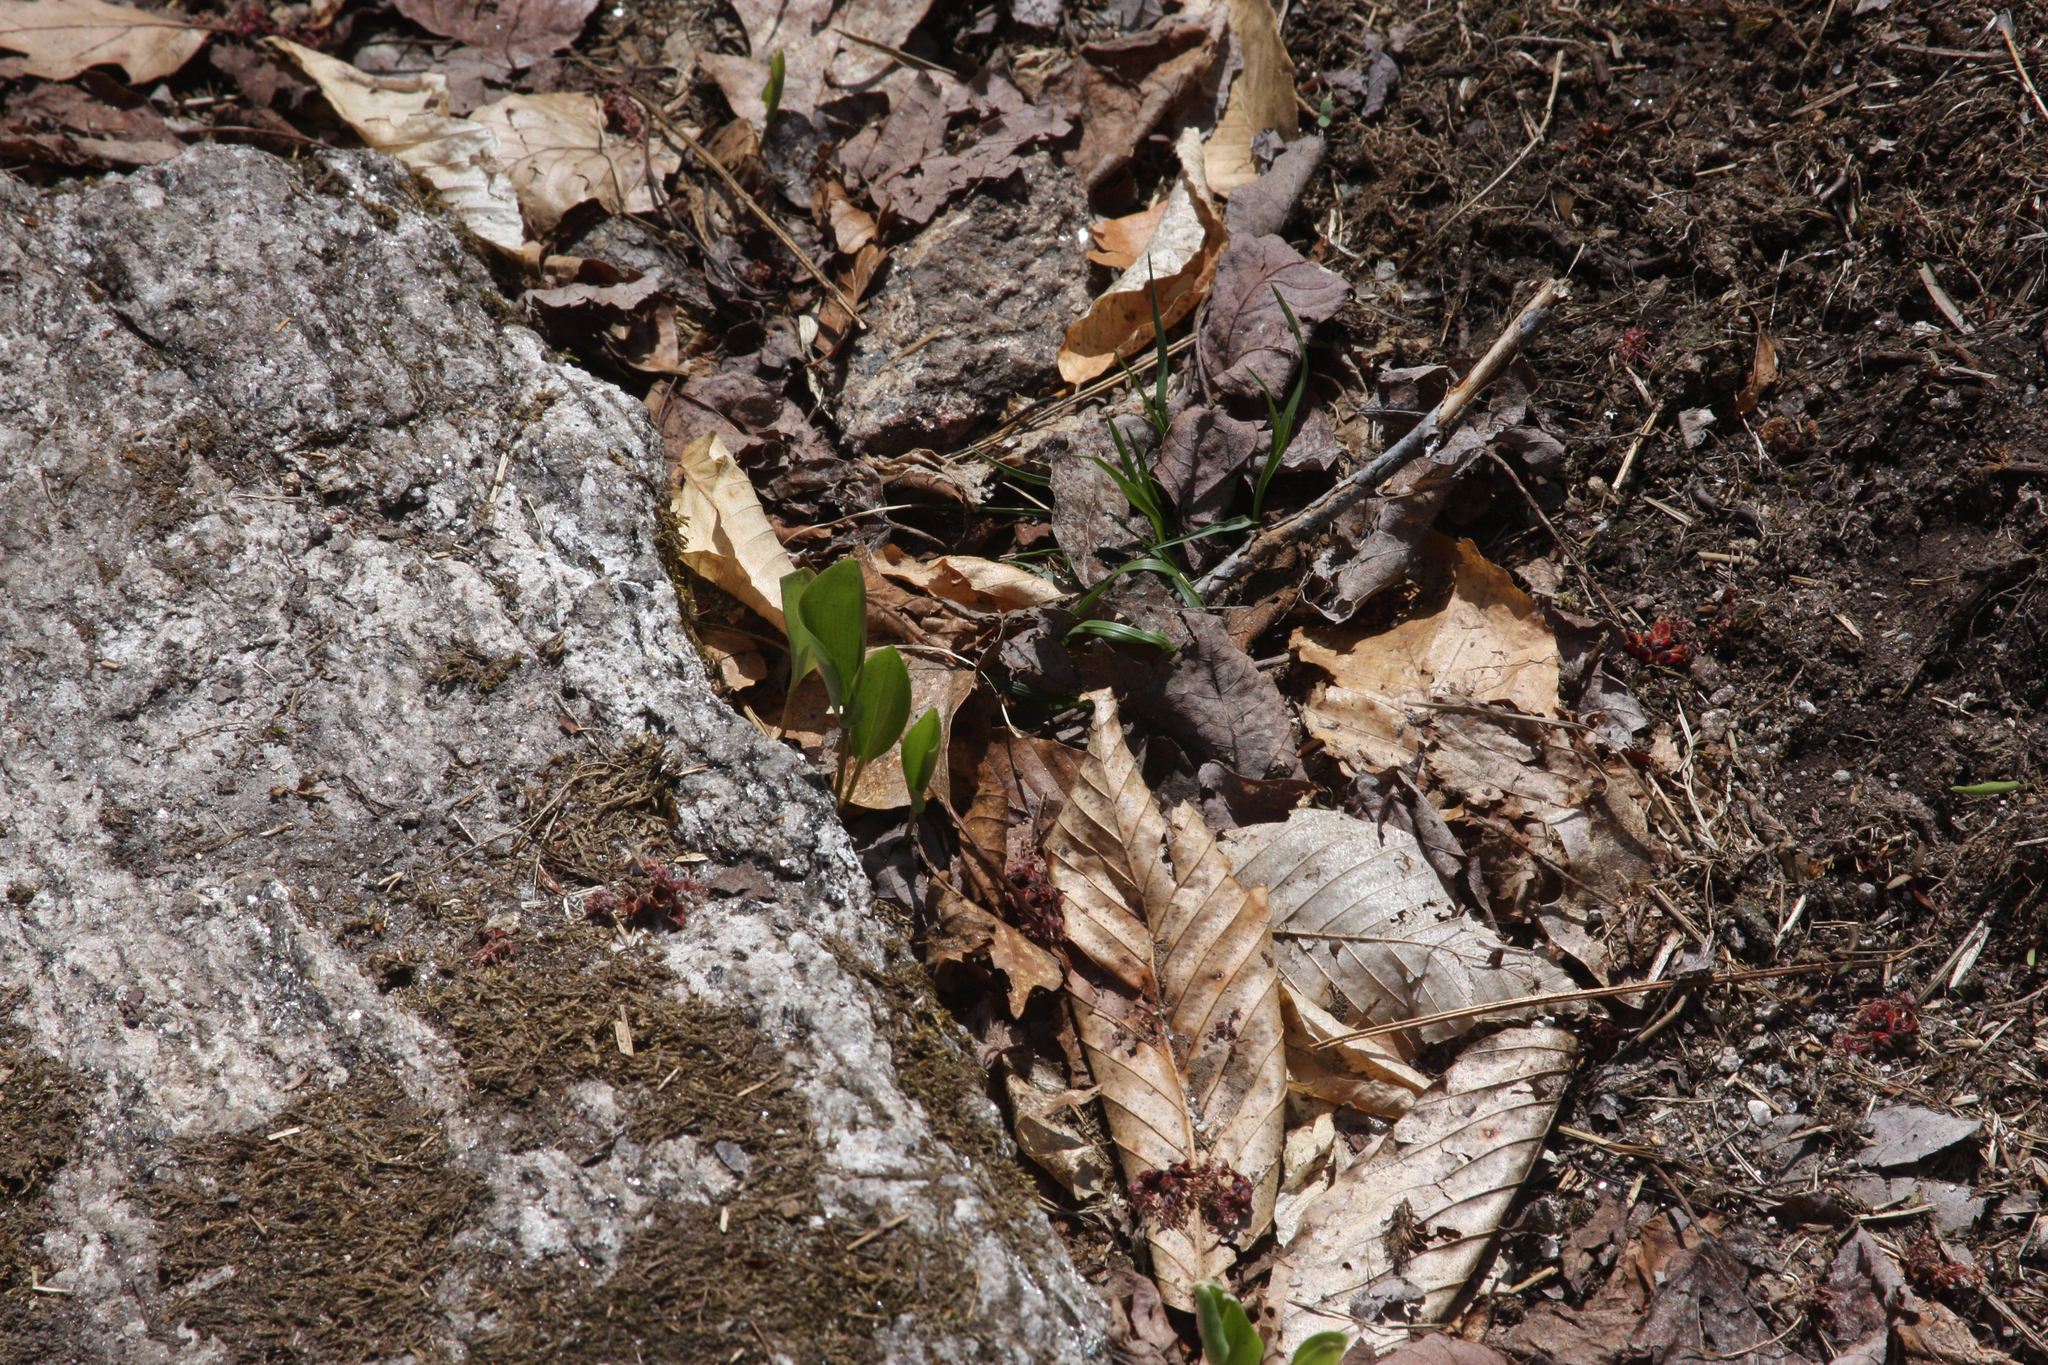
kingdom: Plantae
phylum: Tracheophyta
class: Liliopsida
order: Asparagales
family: Asparagaceae
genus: Maianthemum
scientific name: Maianthemum canadense
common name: False lily-of-the-valley
